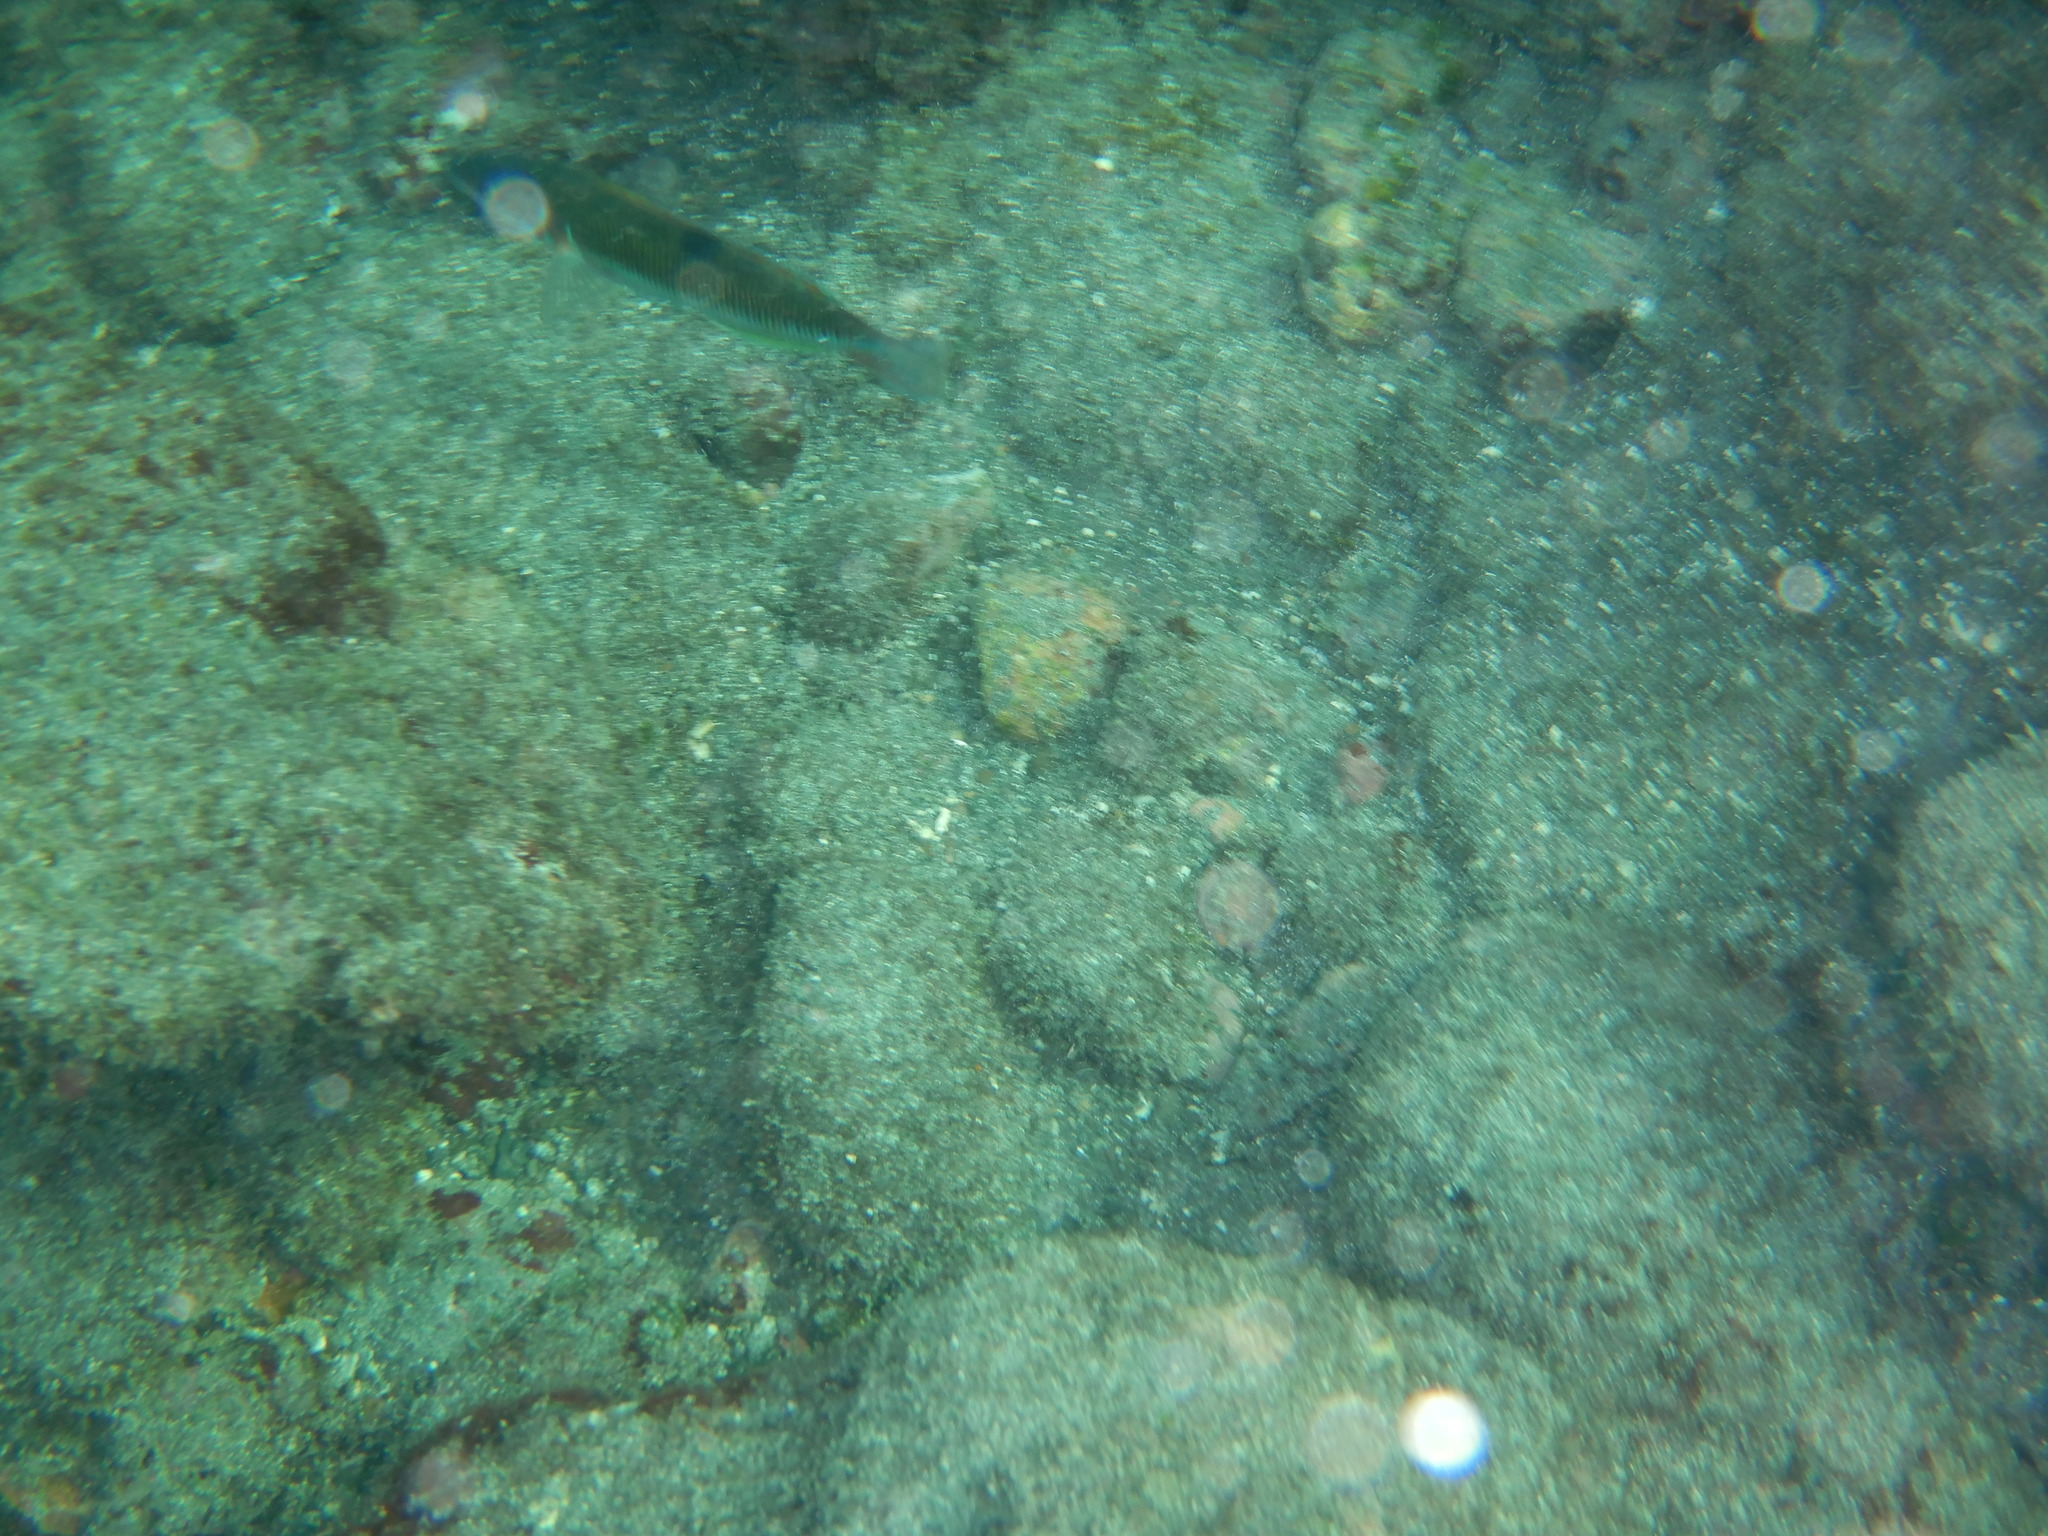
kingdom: Animalia
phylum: Chordata
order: Perciformes
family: Labridae
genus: Thalassoma
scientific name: Thalassoma pavo
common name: Ornate wrasse
